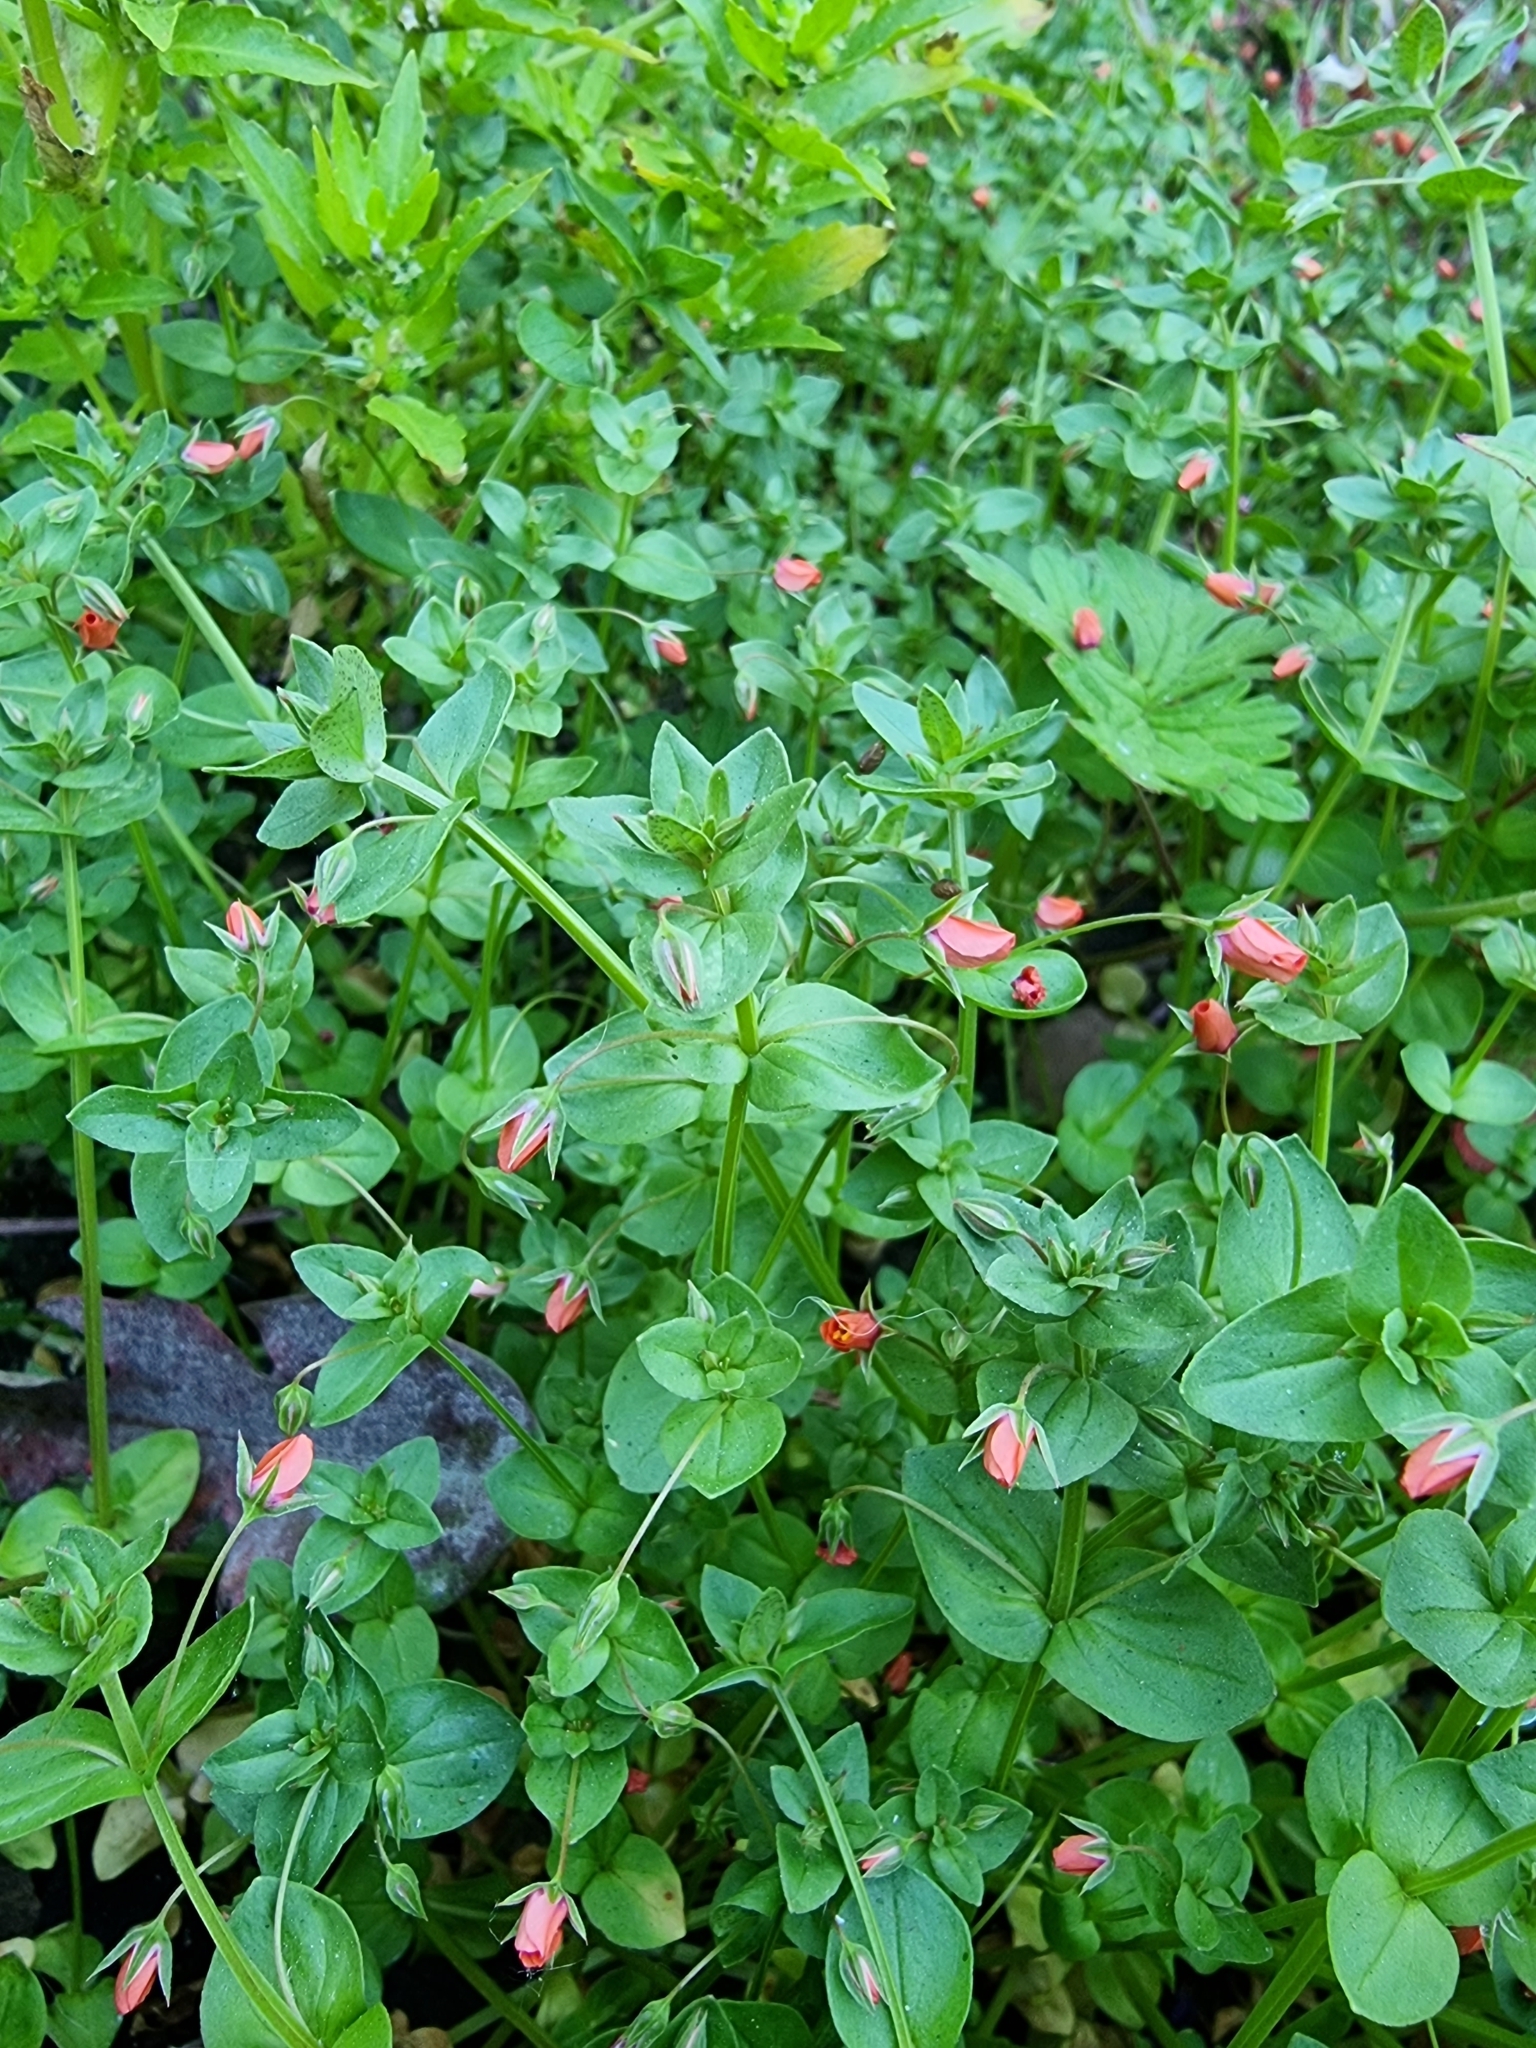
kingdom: Plantae
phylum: Tracheophyta
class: Magnoliopsida
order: Ericales
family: Primulaceae
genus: Lysimachia
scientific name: Lysimachia arvensis
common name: Scarlet pimpernel
